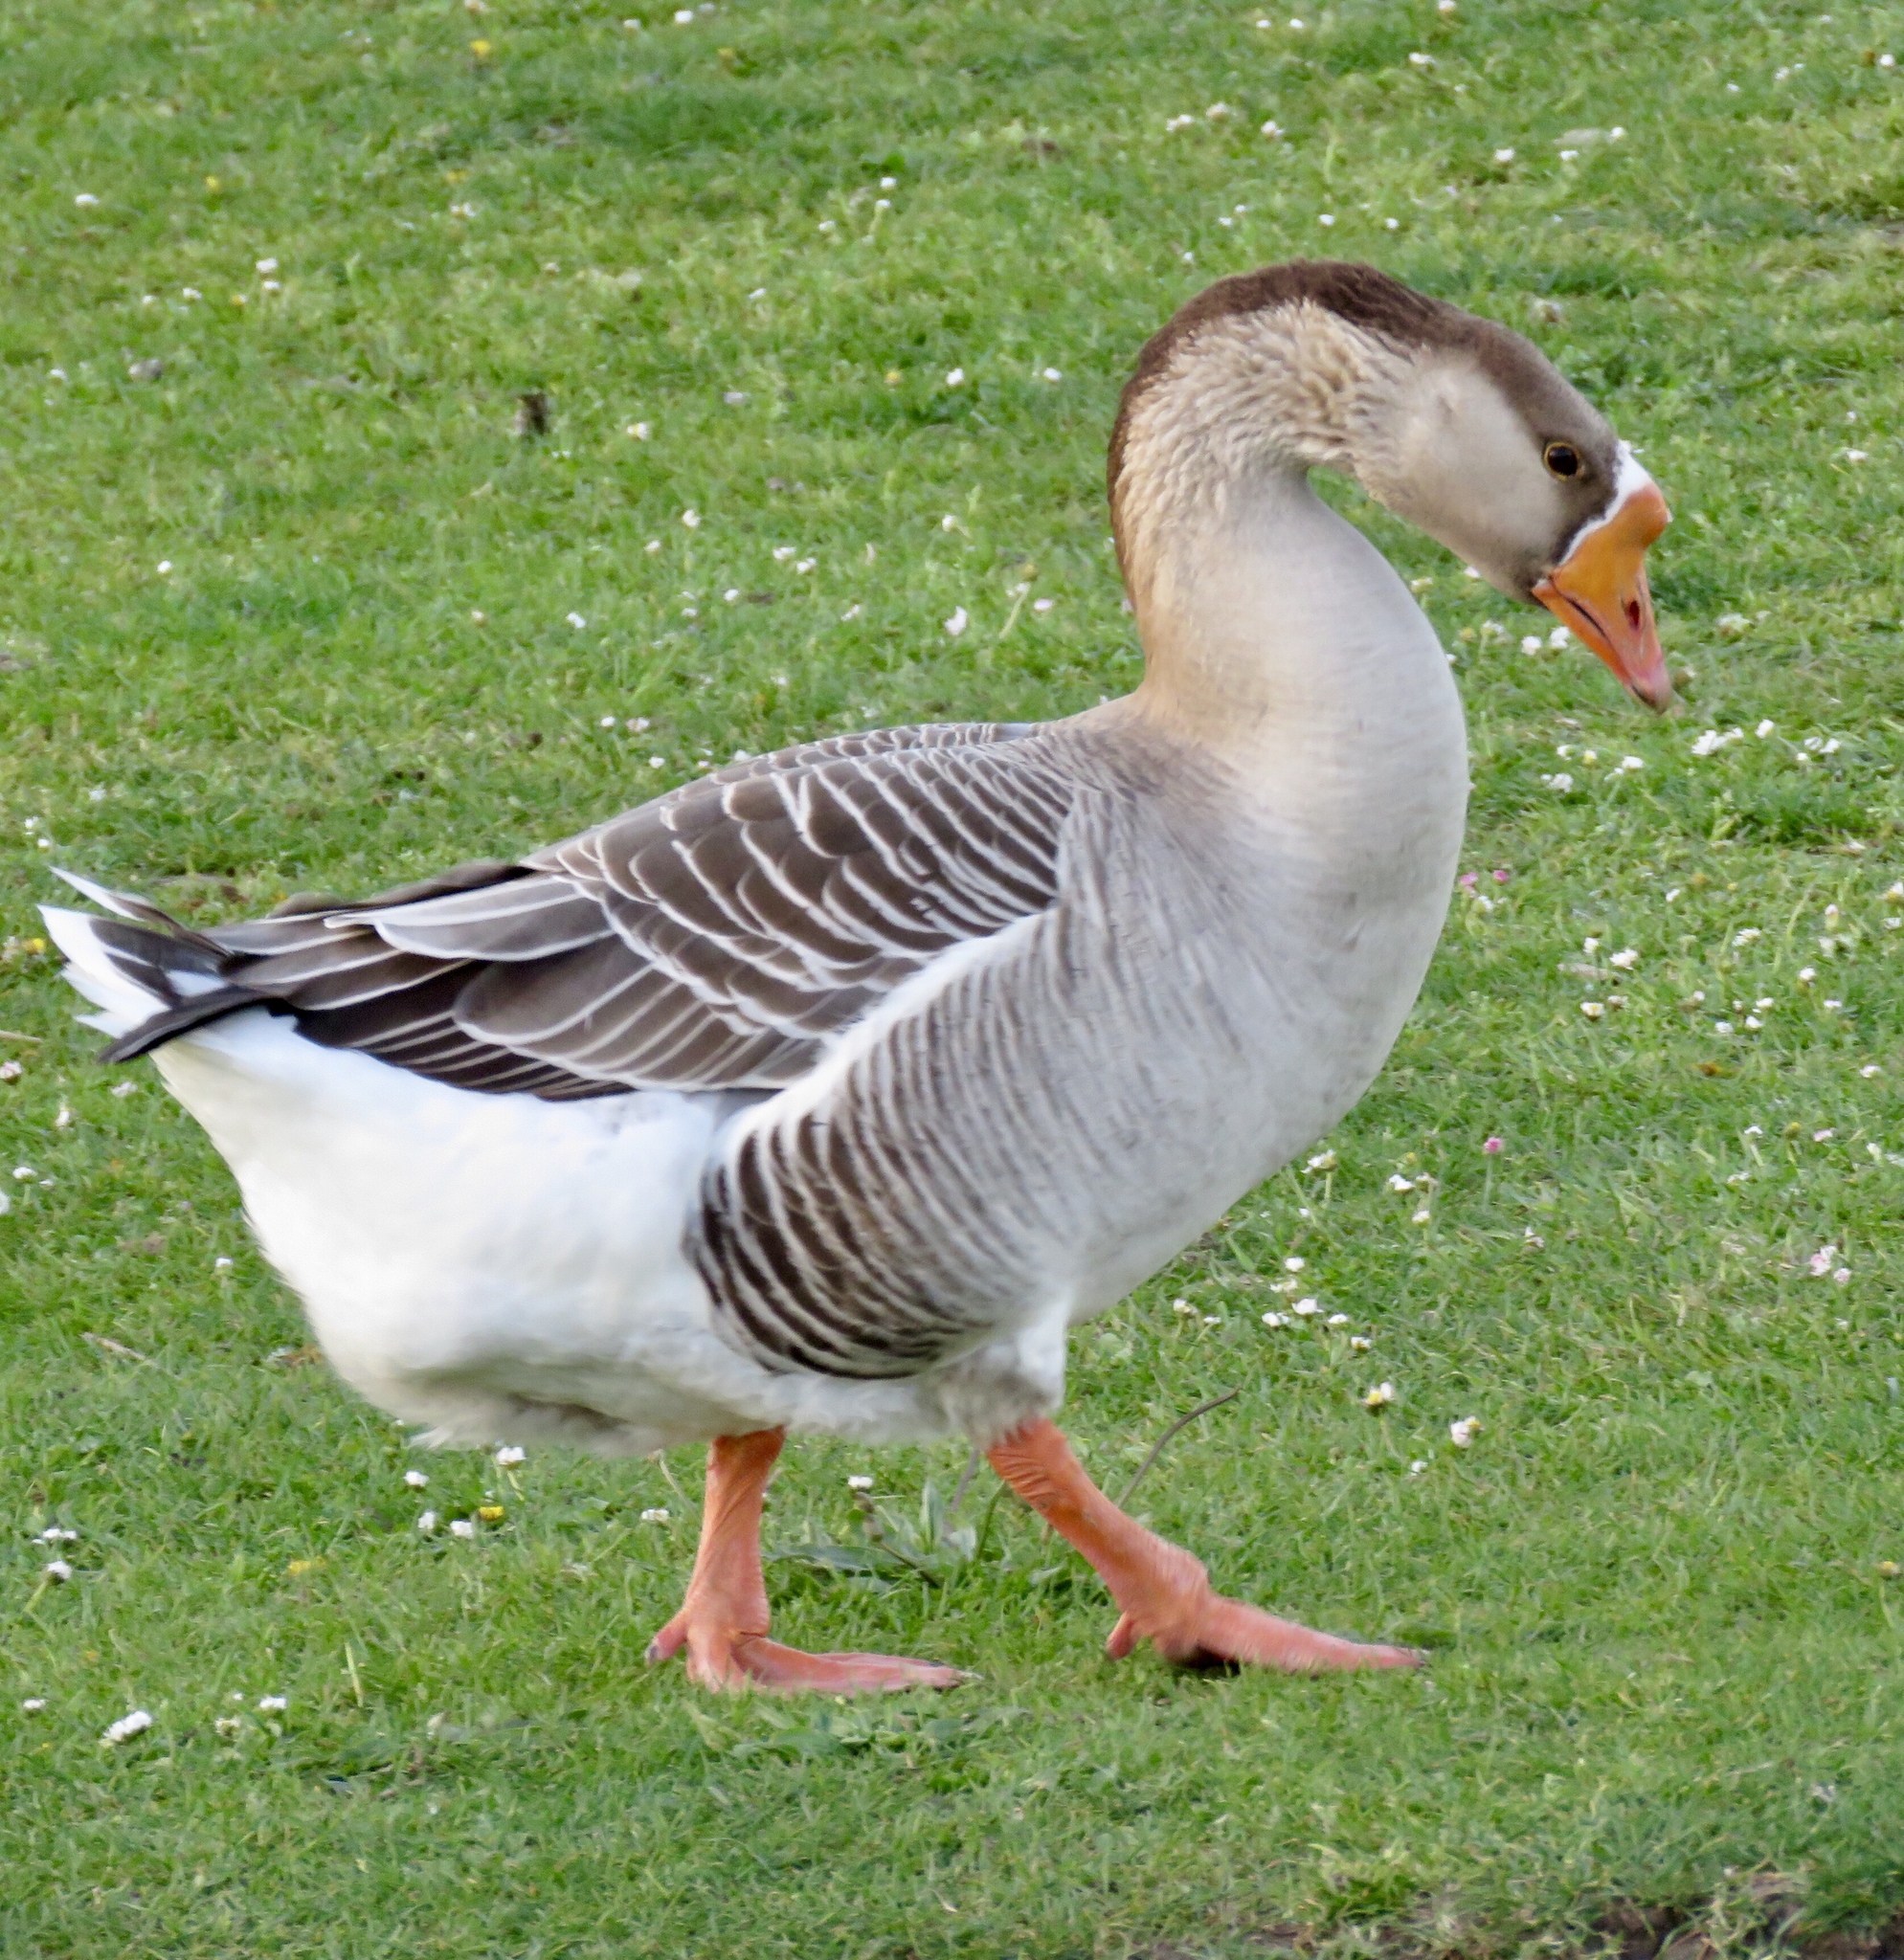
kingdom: Animalia
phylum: Chordata
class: Aves
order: Anseriformes
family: Anatidae
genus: Anser
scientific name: Anser cygnoides
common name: Swan goose
